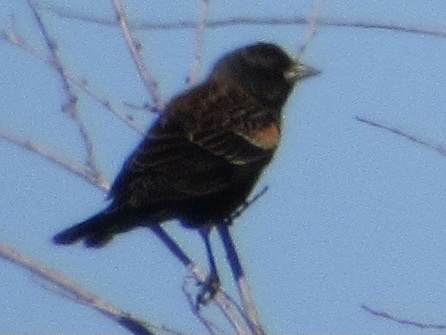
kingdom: Animalia
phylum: Chordata
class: Aves
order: Passeriformes
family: Icteridae
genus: Agelaius
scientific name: Agelaius phoeniceus
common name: Red-winged blackbird
